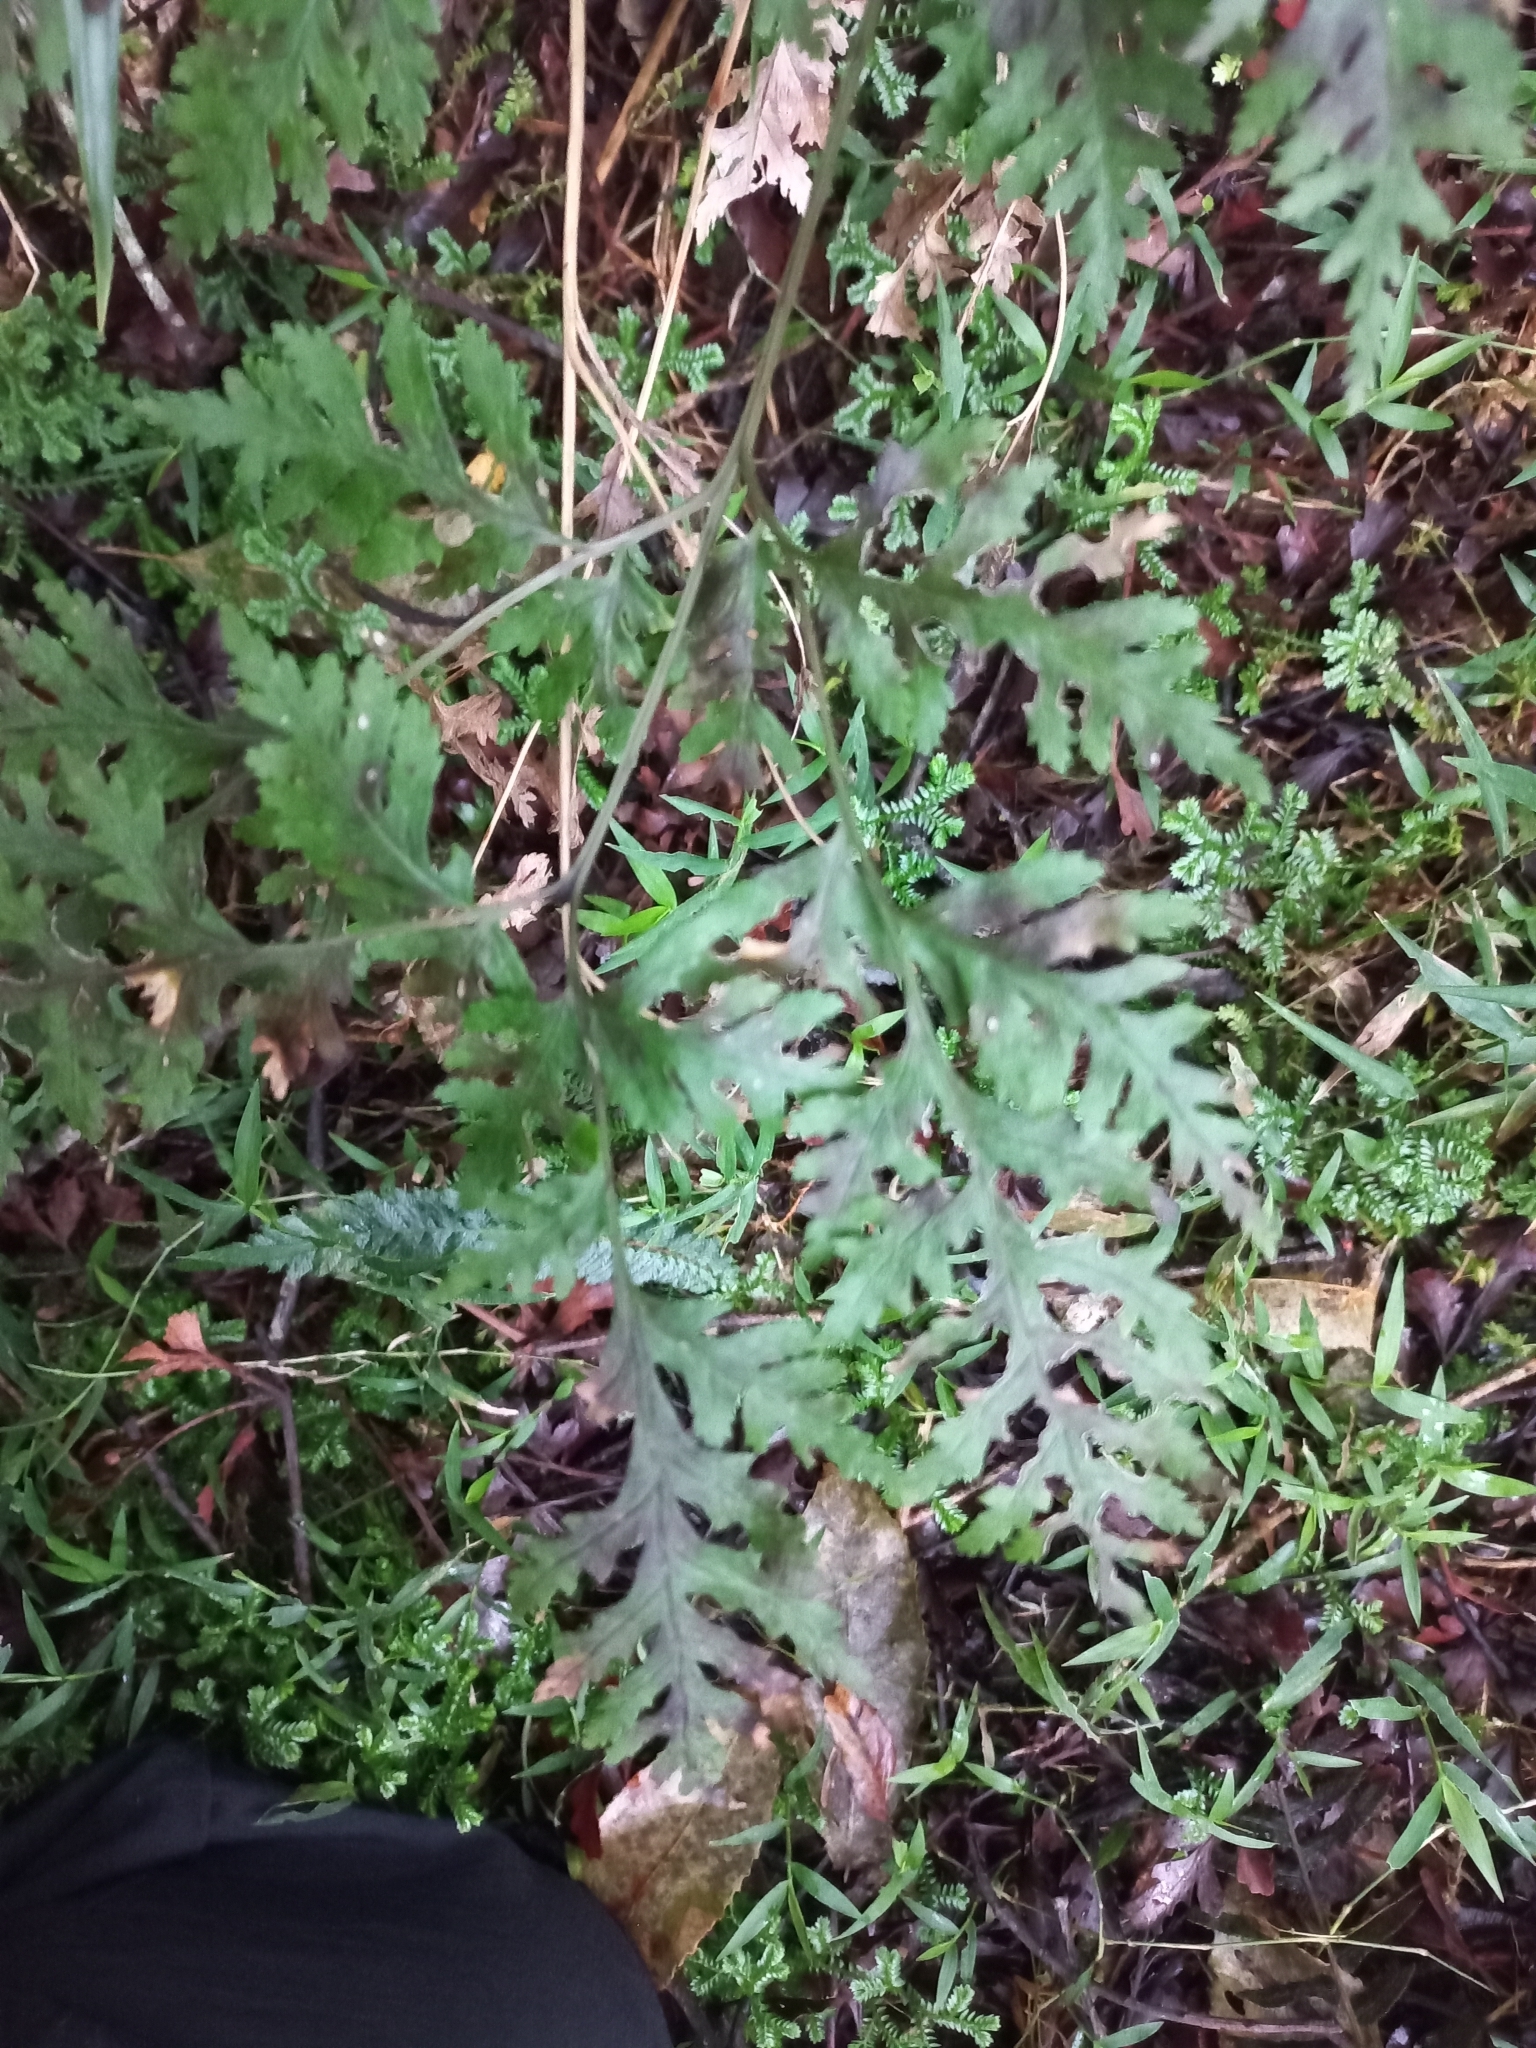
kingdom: Plantae
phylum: Tracheophyta
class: Polypodiopsida
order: Polypodiales
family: Pteridaceae
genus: Pteris
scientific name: Pteris macilenta
